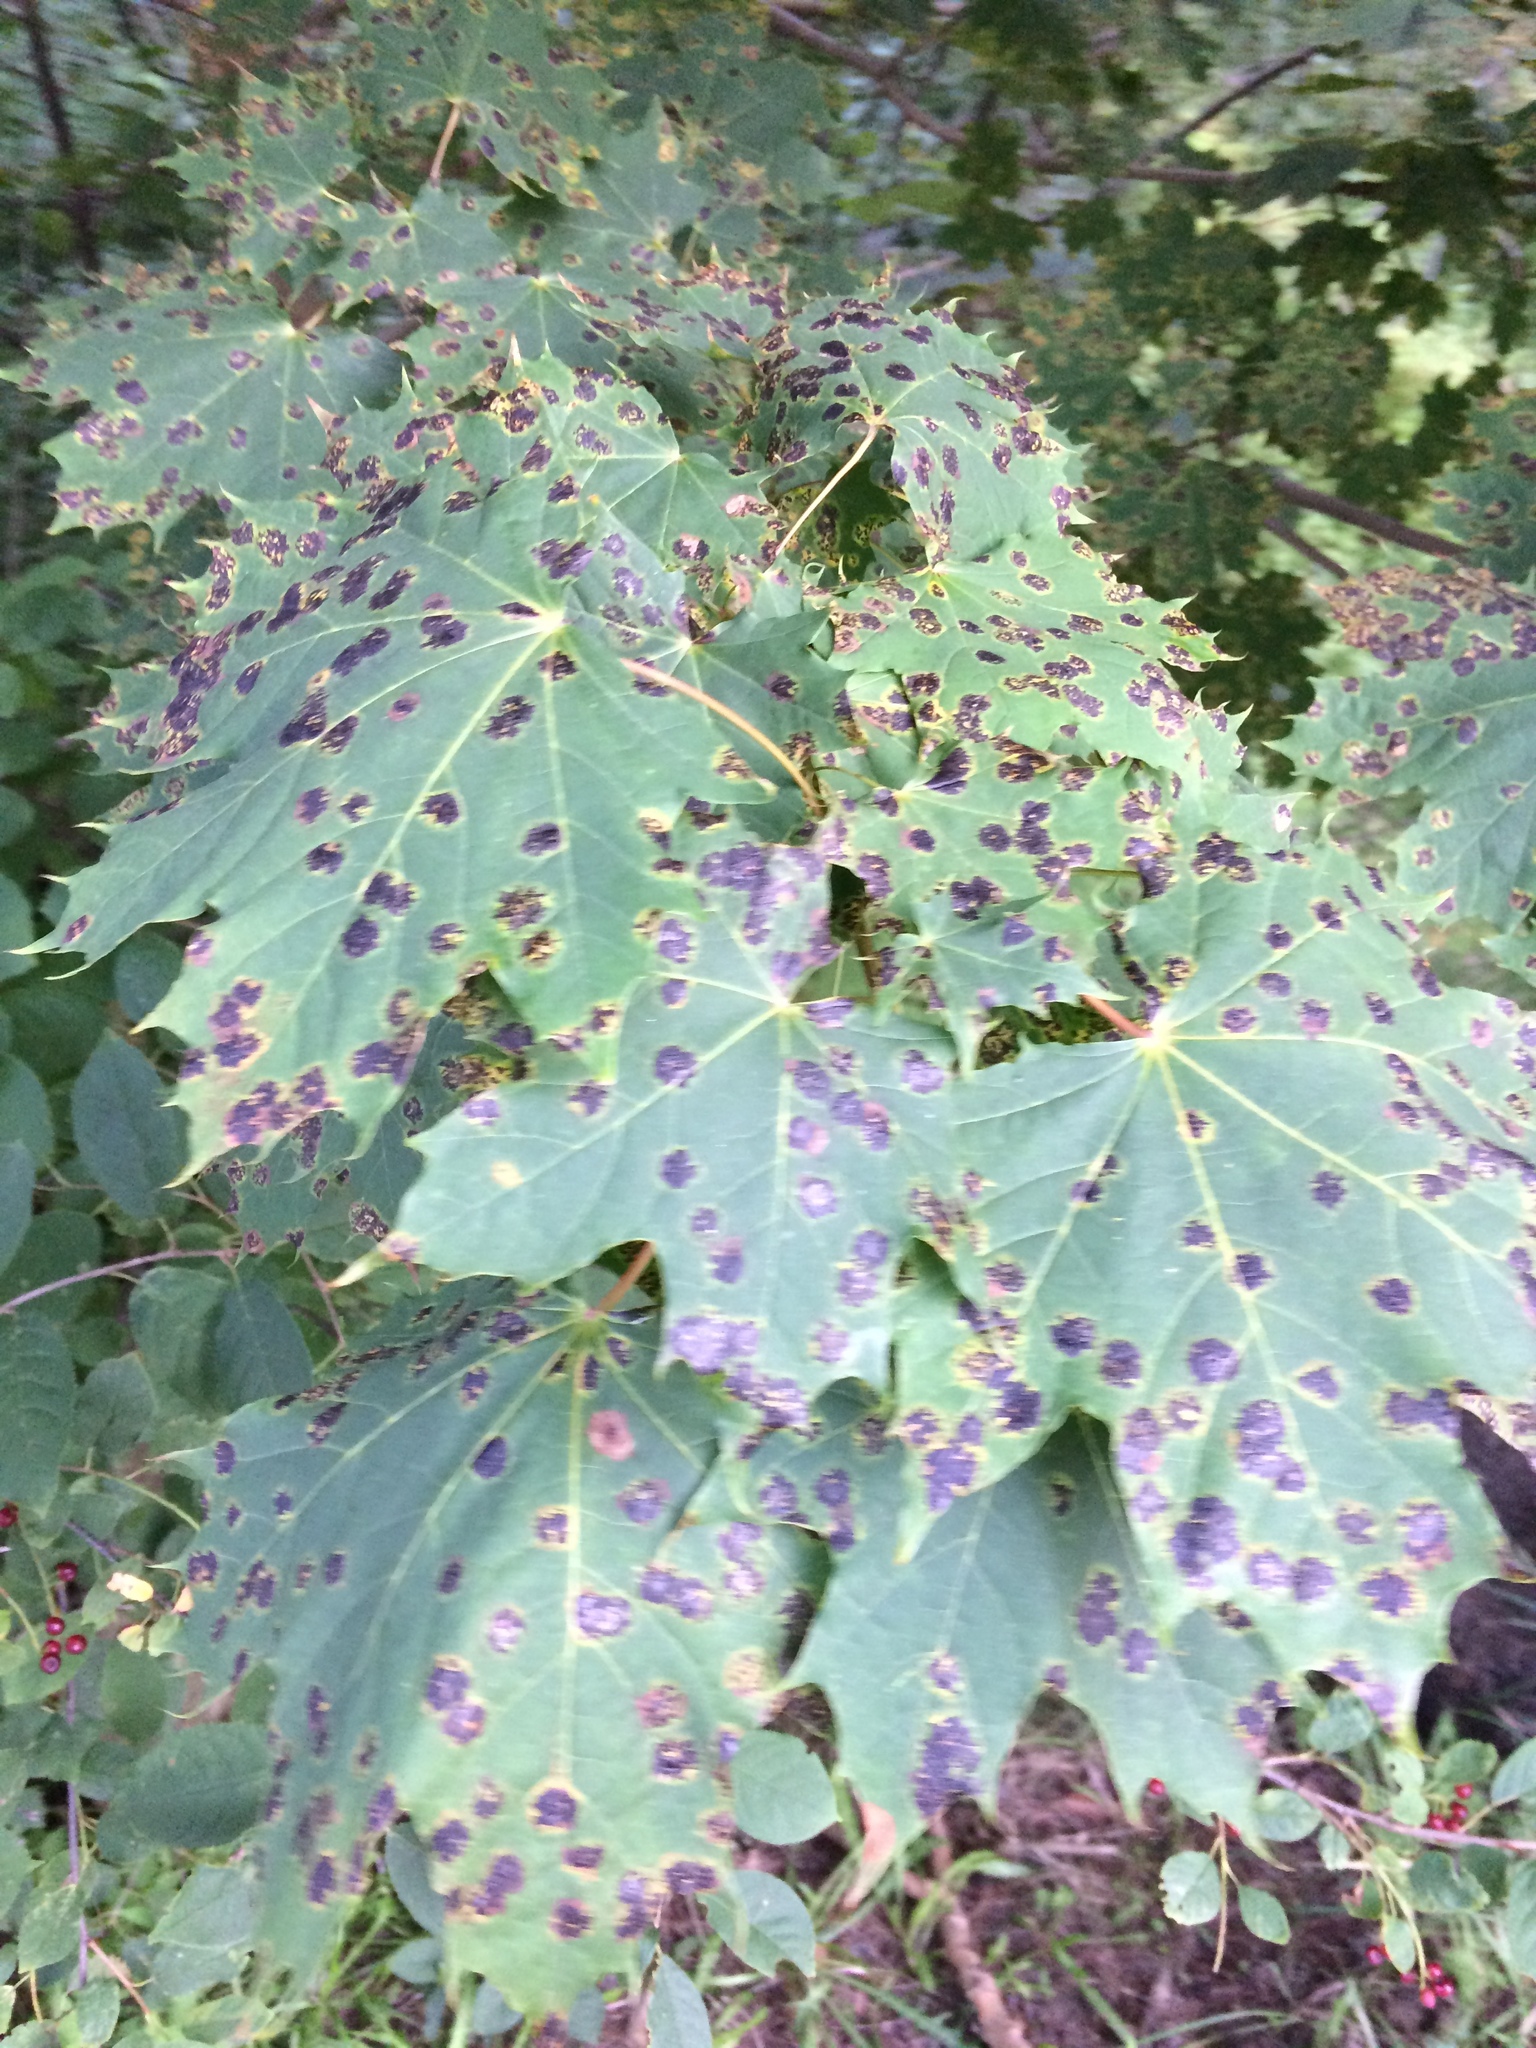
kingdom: Plantae
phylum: Tracheophyta
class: Magnoliopsida
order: Sapindales
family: Sapindaceae
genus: Acer
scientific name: Acer platanoides
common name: Norway maple
